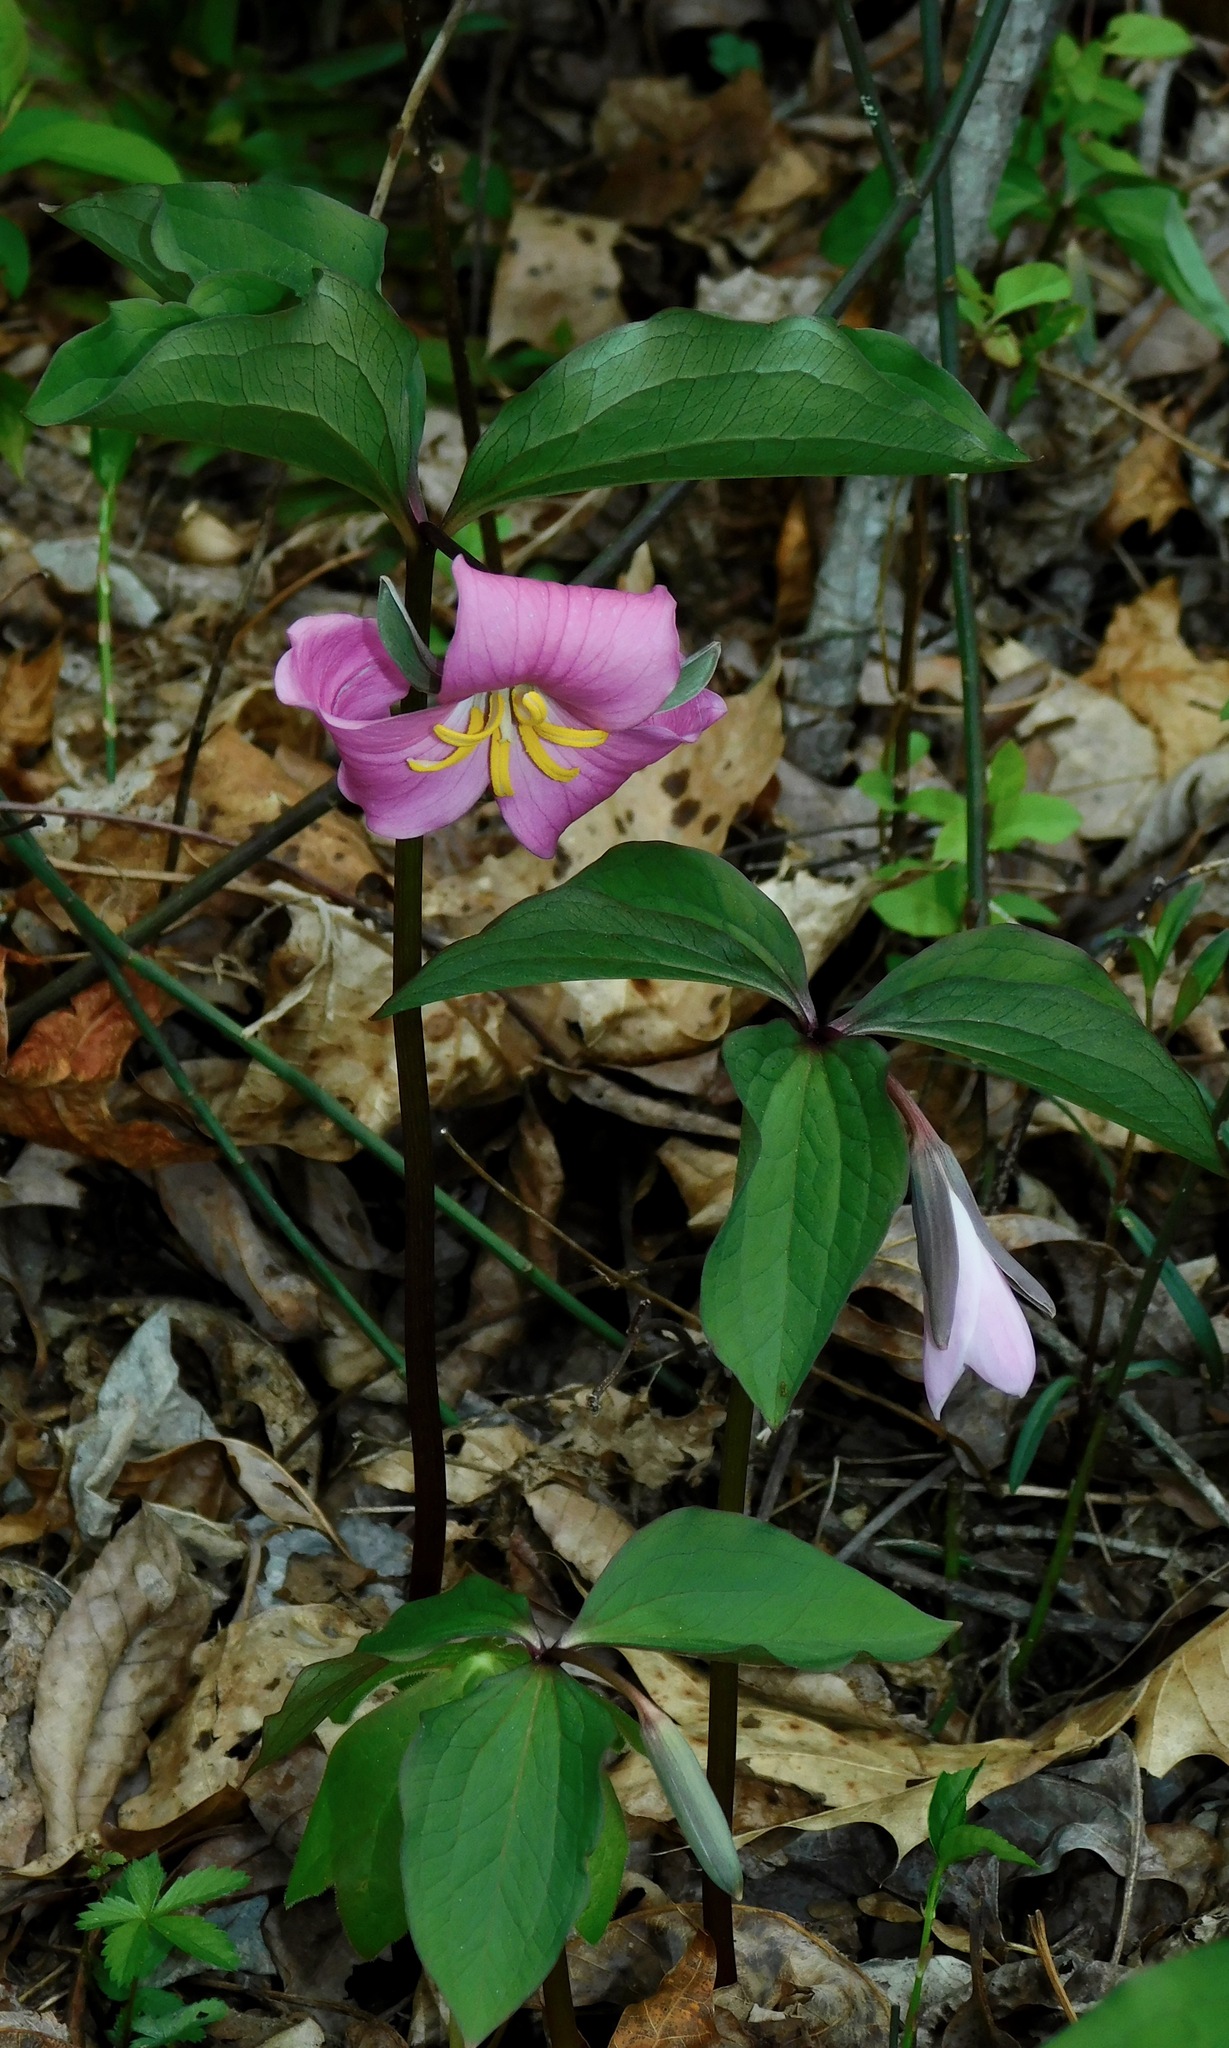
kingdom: Plantae
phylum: Tracheophyta
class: Liliopsida
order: Liliales
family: Melanthiaceae
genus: Trillium
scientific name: Trillium catesbaei
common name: Bashful trillium
